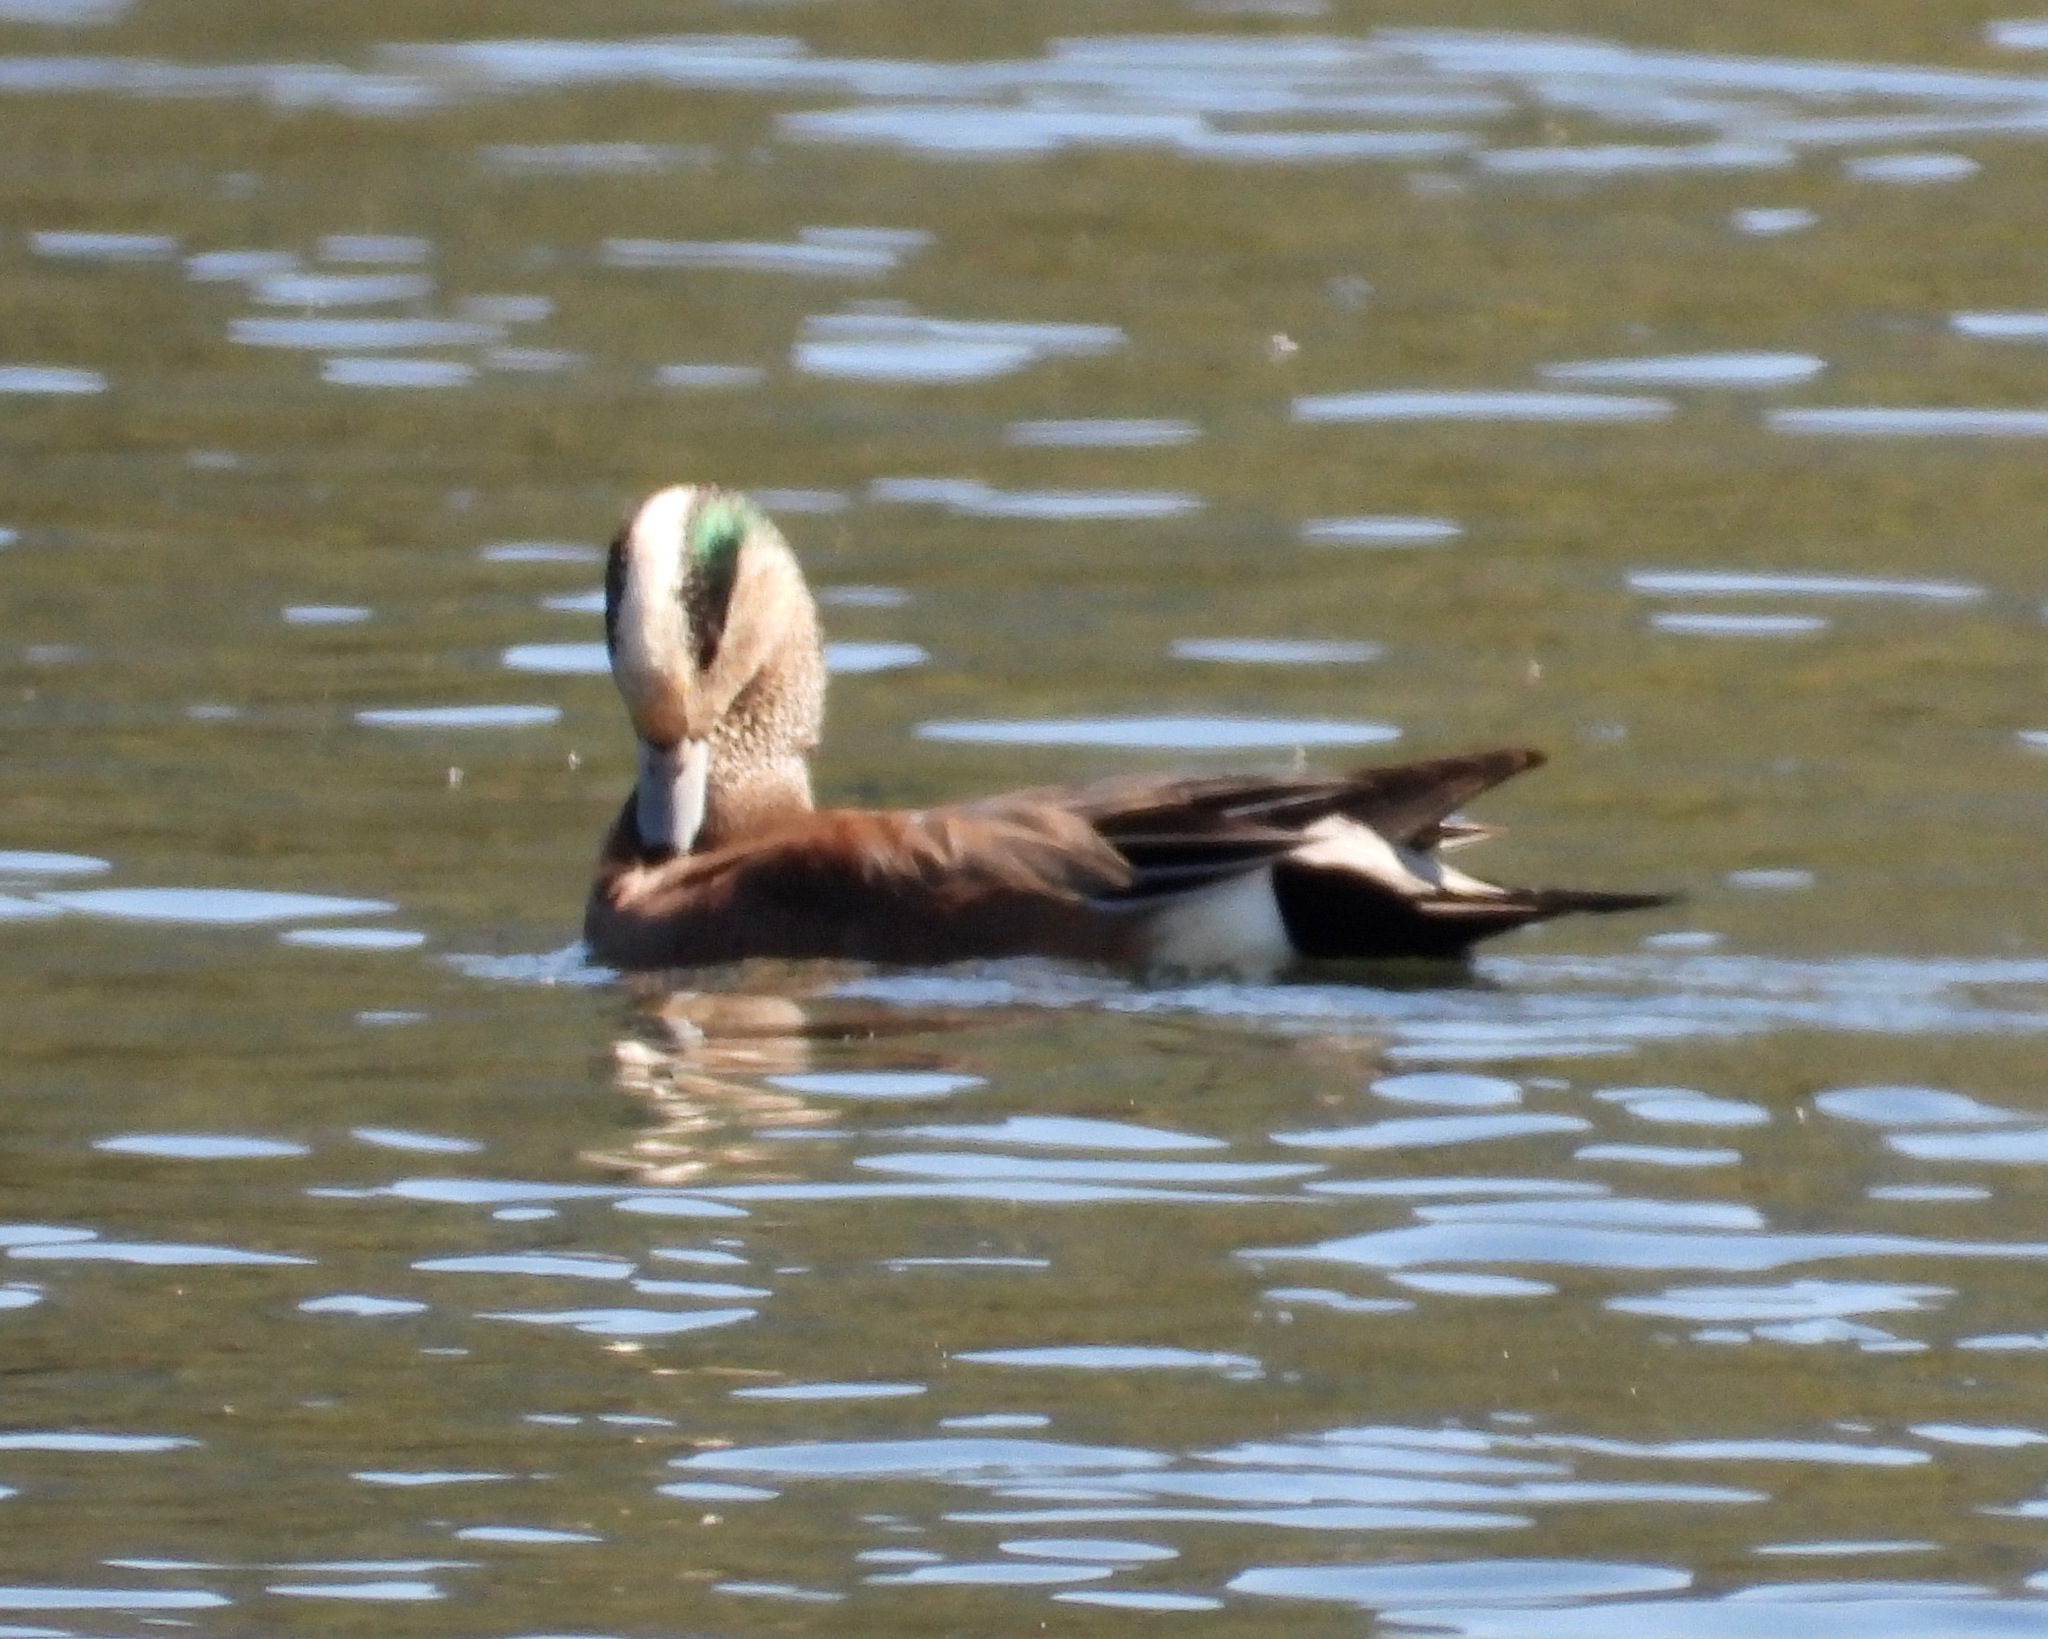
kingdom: Animalia
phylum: Chordata
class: Aves
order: Anseriformes
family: Anatidae
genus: Mareca
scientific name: Mareca americana
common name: American wigeon
